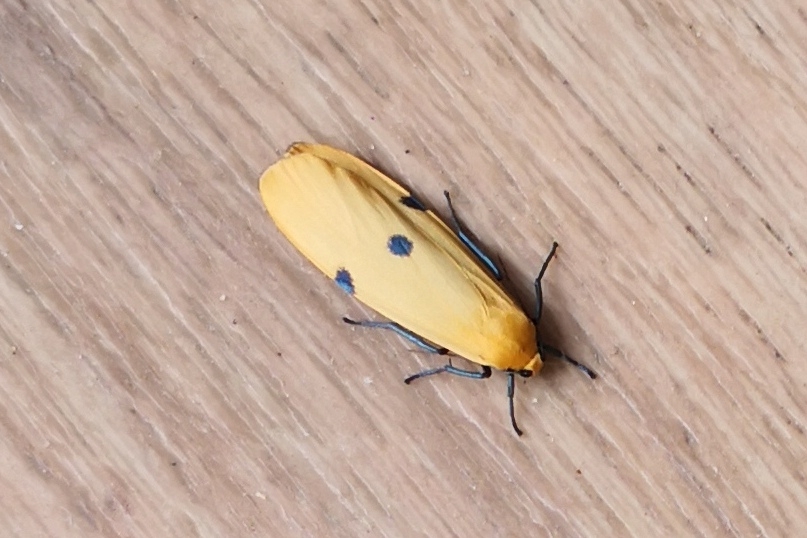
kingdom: Animalia
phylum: Arthropoda
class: Insecta
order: Lepidoptera
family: Erebidae
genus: Lithosia
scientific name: Lithosia quadra
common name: Four-spotted footman
